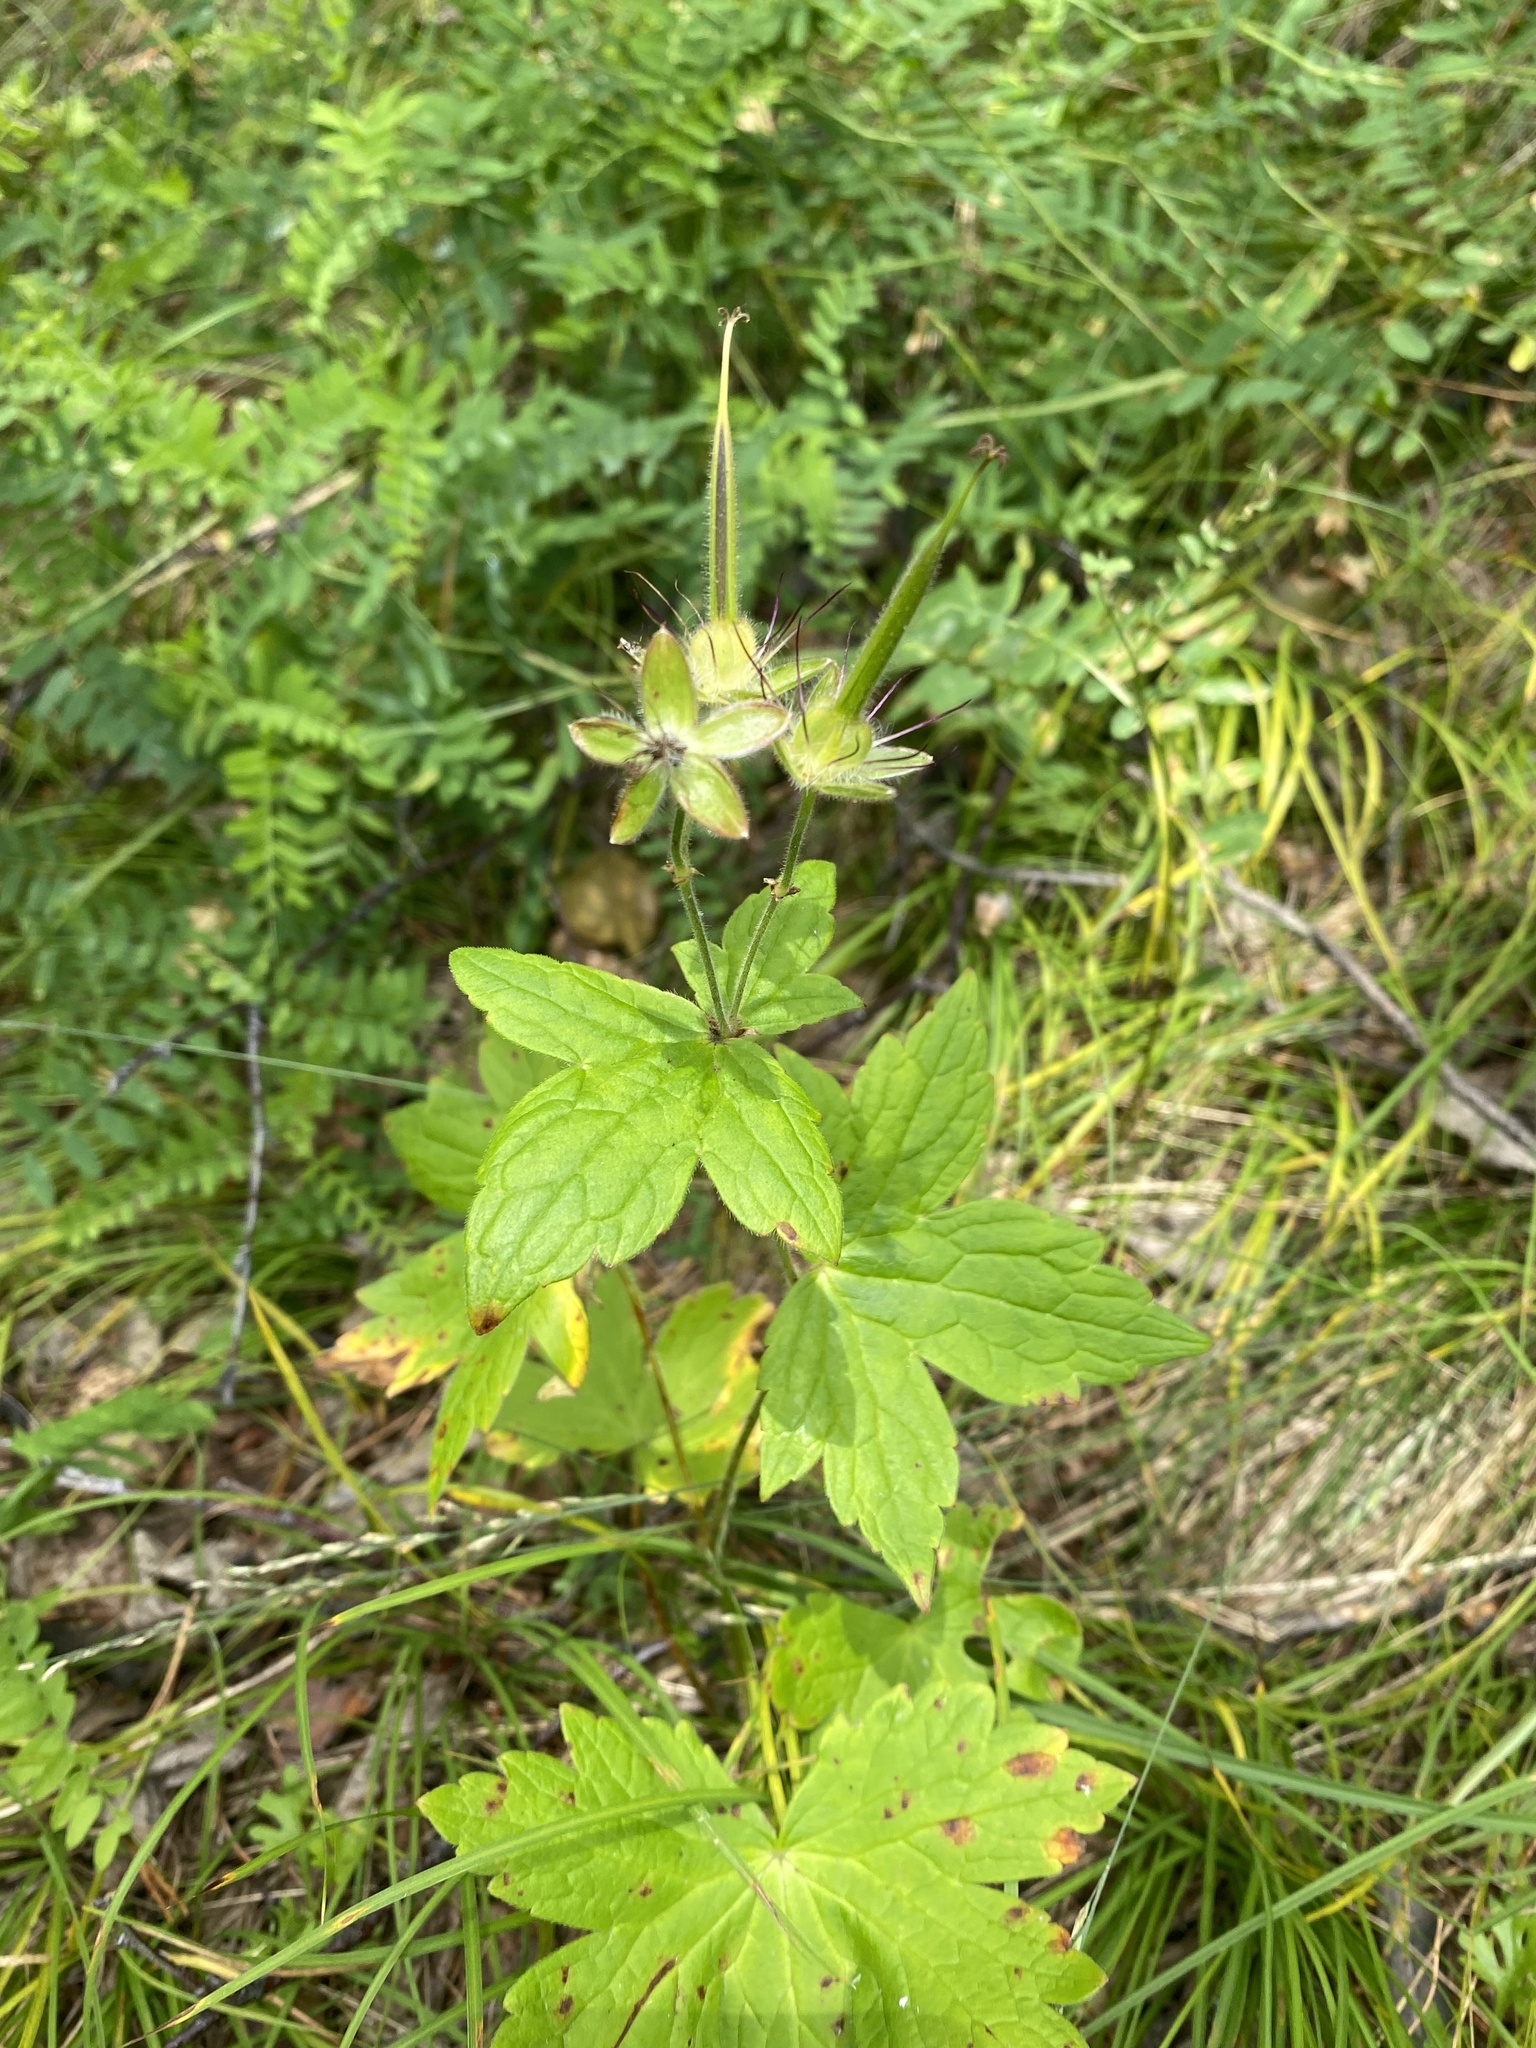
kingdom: Plantae
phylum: Tracheophyta
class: Magnoliopsida
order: Geraniales
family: Geraniaceae
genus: Geranium
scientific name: Geranium platyanthum
